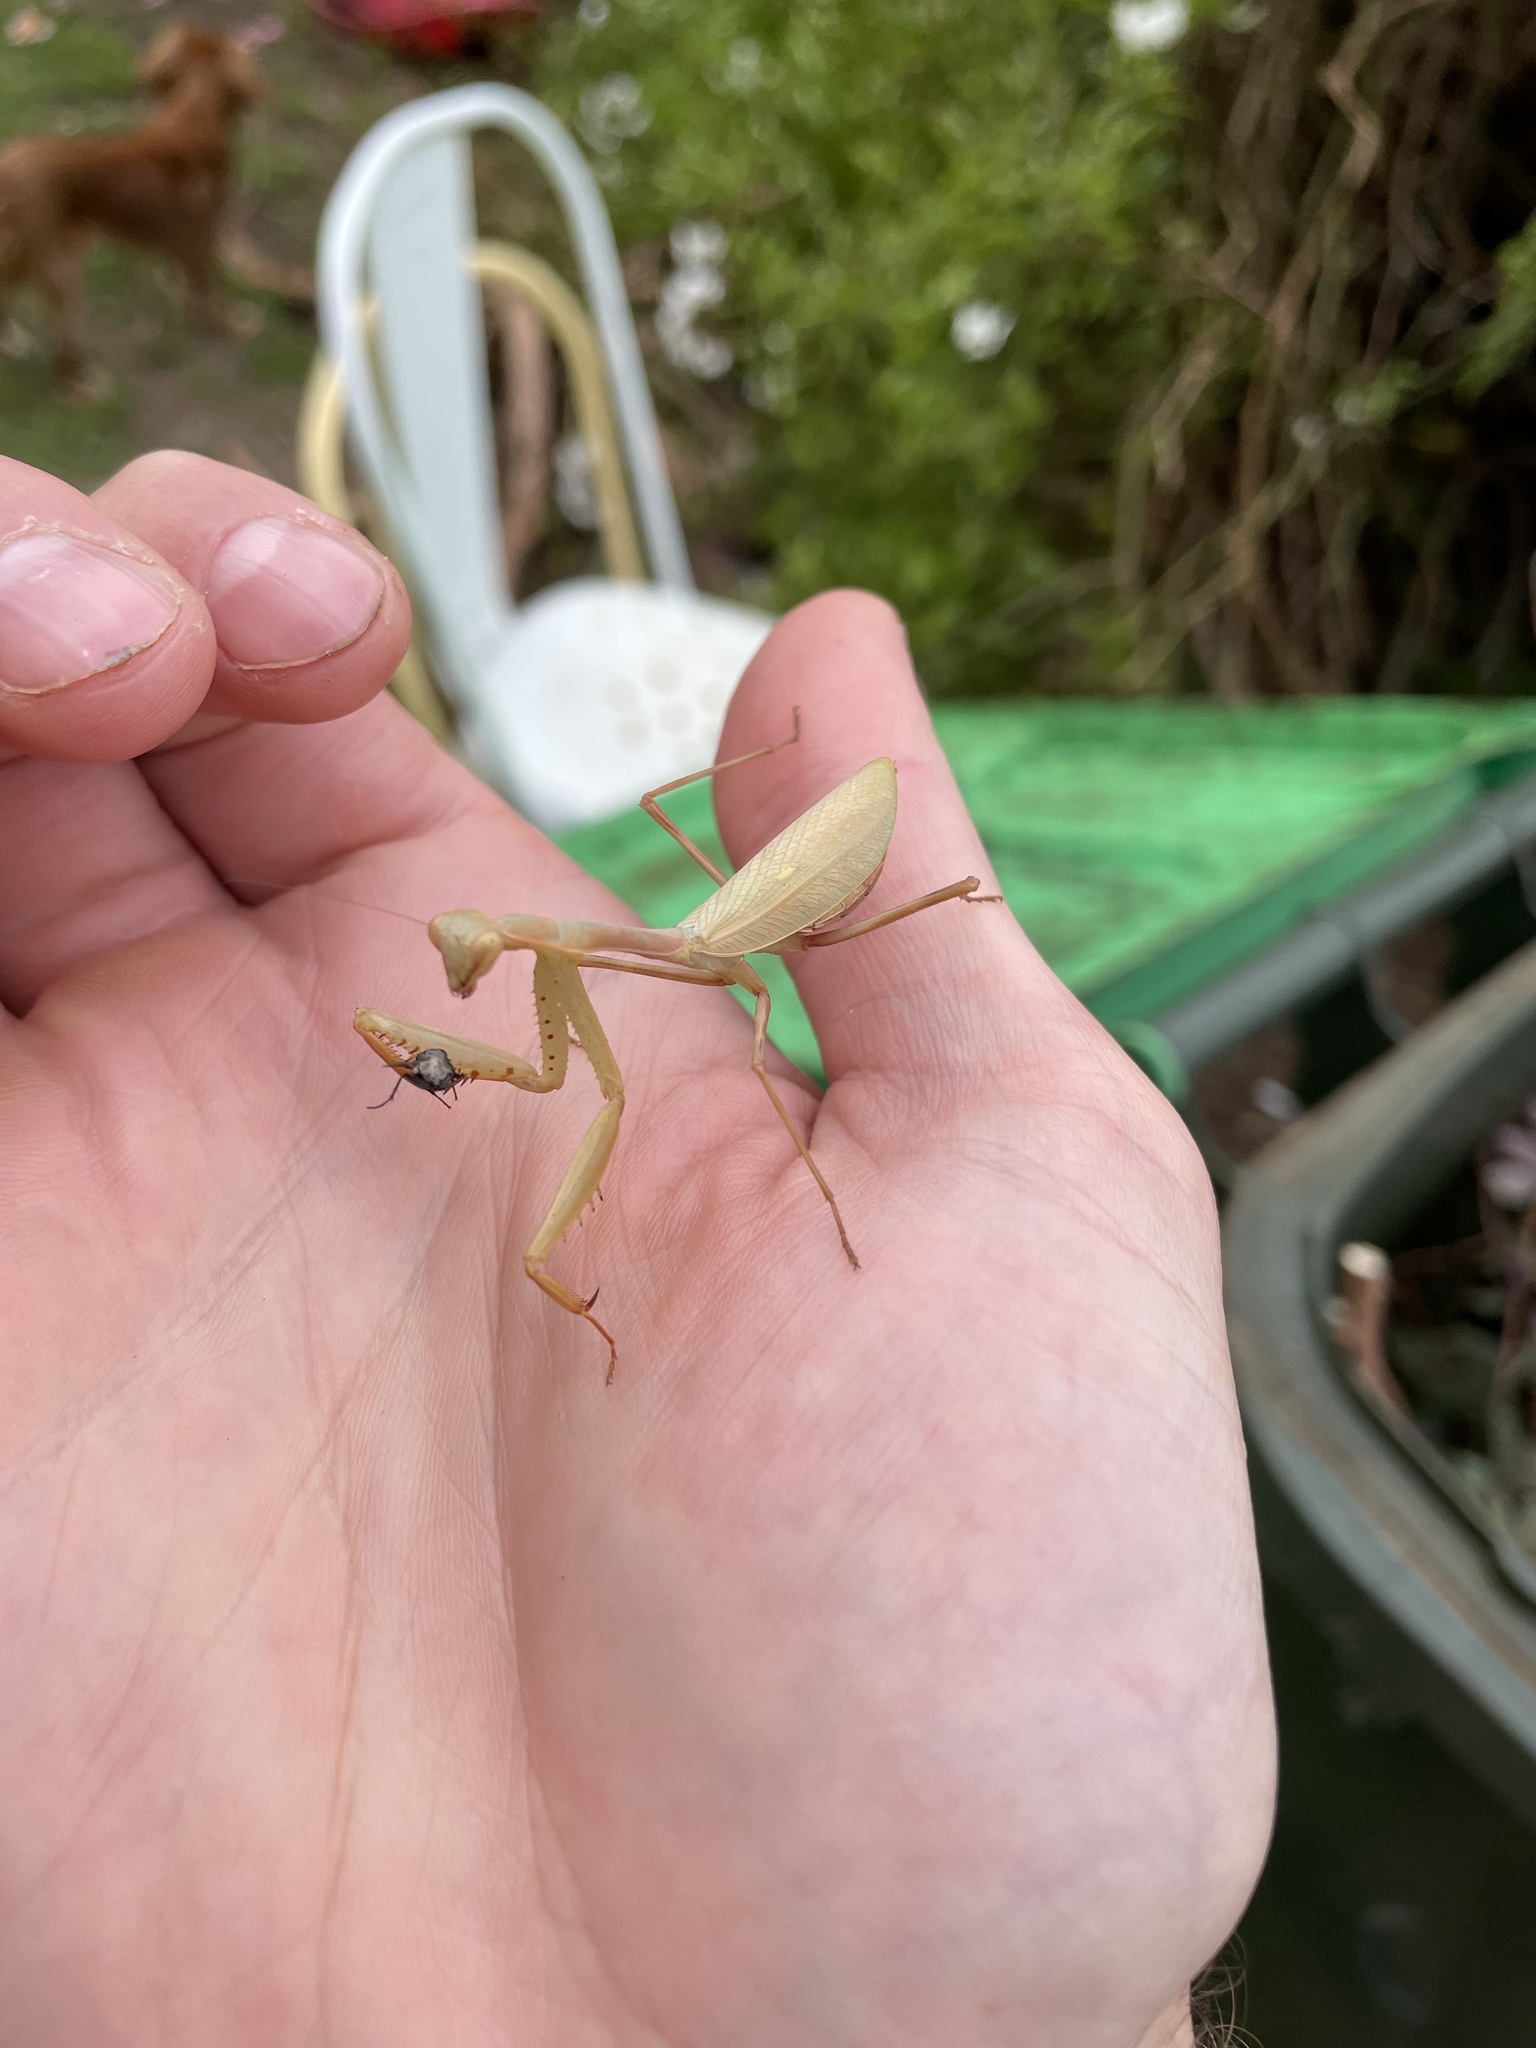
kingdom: Animalia
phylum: Arthropoda
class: Insecta
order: Mantodea
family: Miomantidae
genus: Miomantis
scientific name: Miomantis caffra
